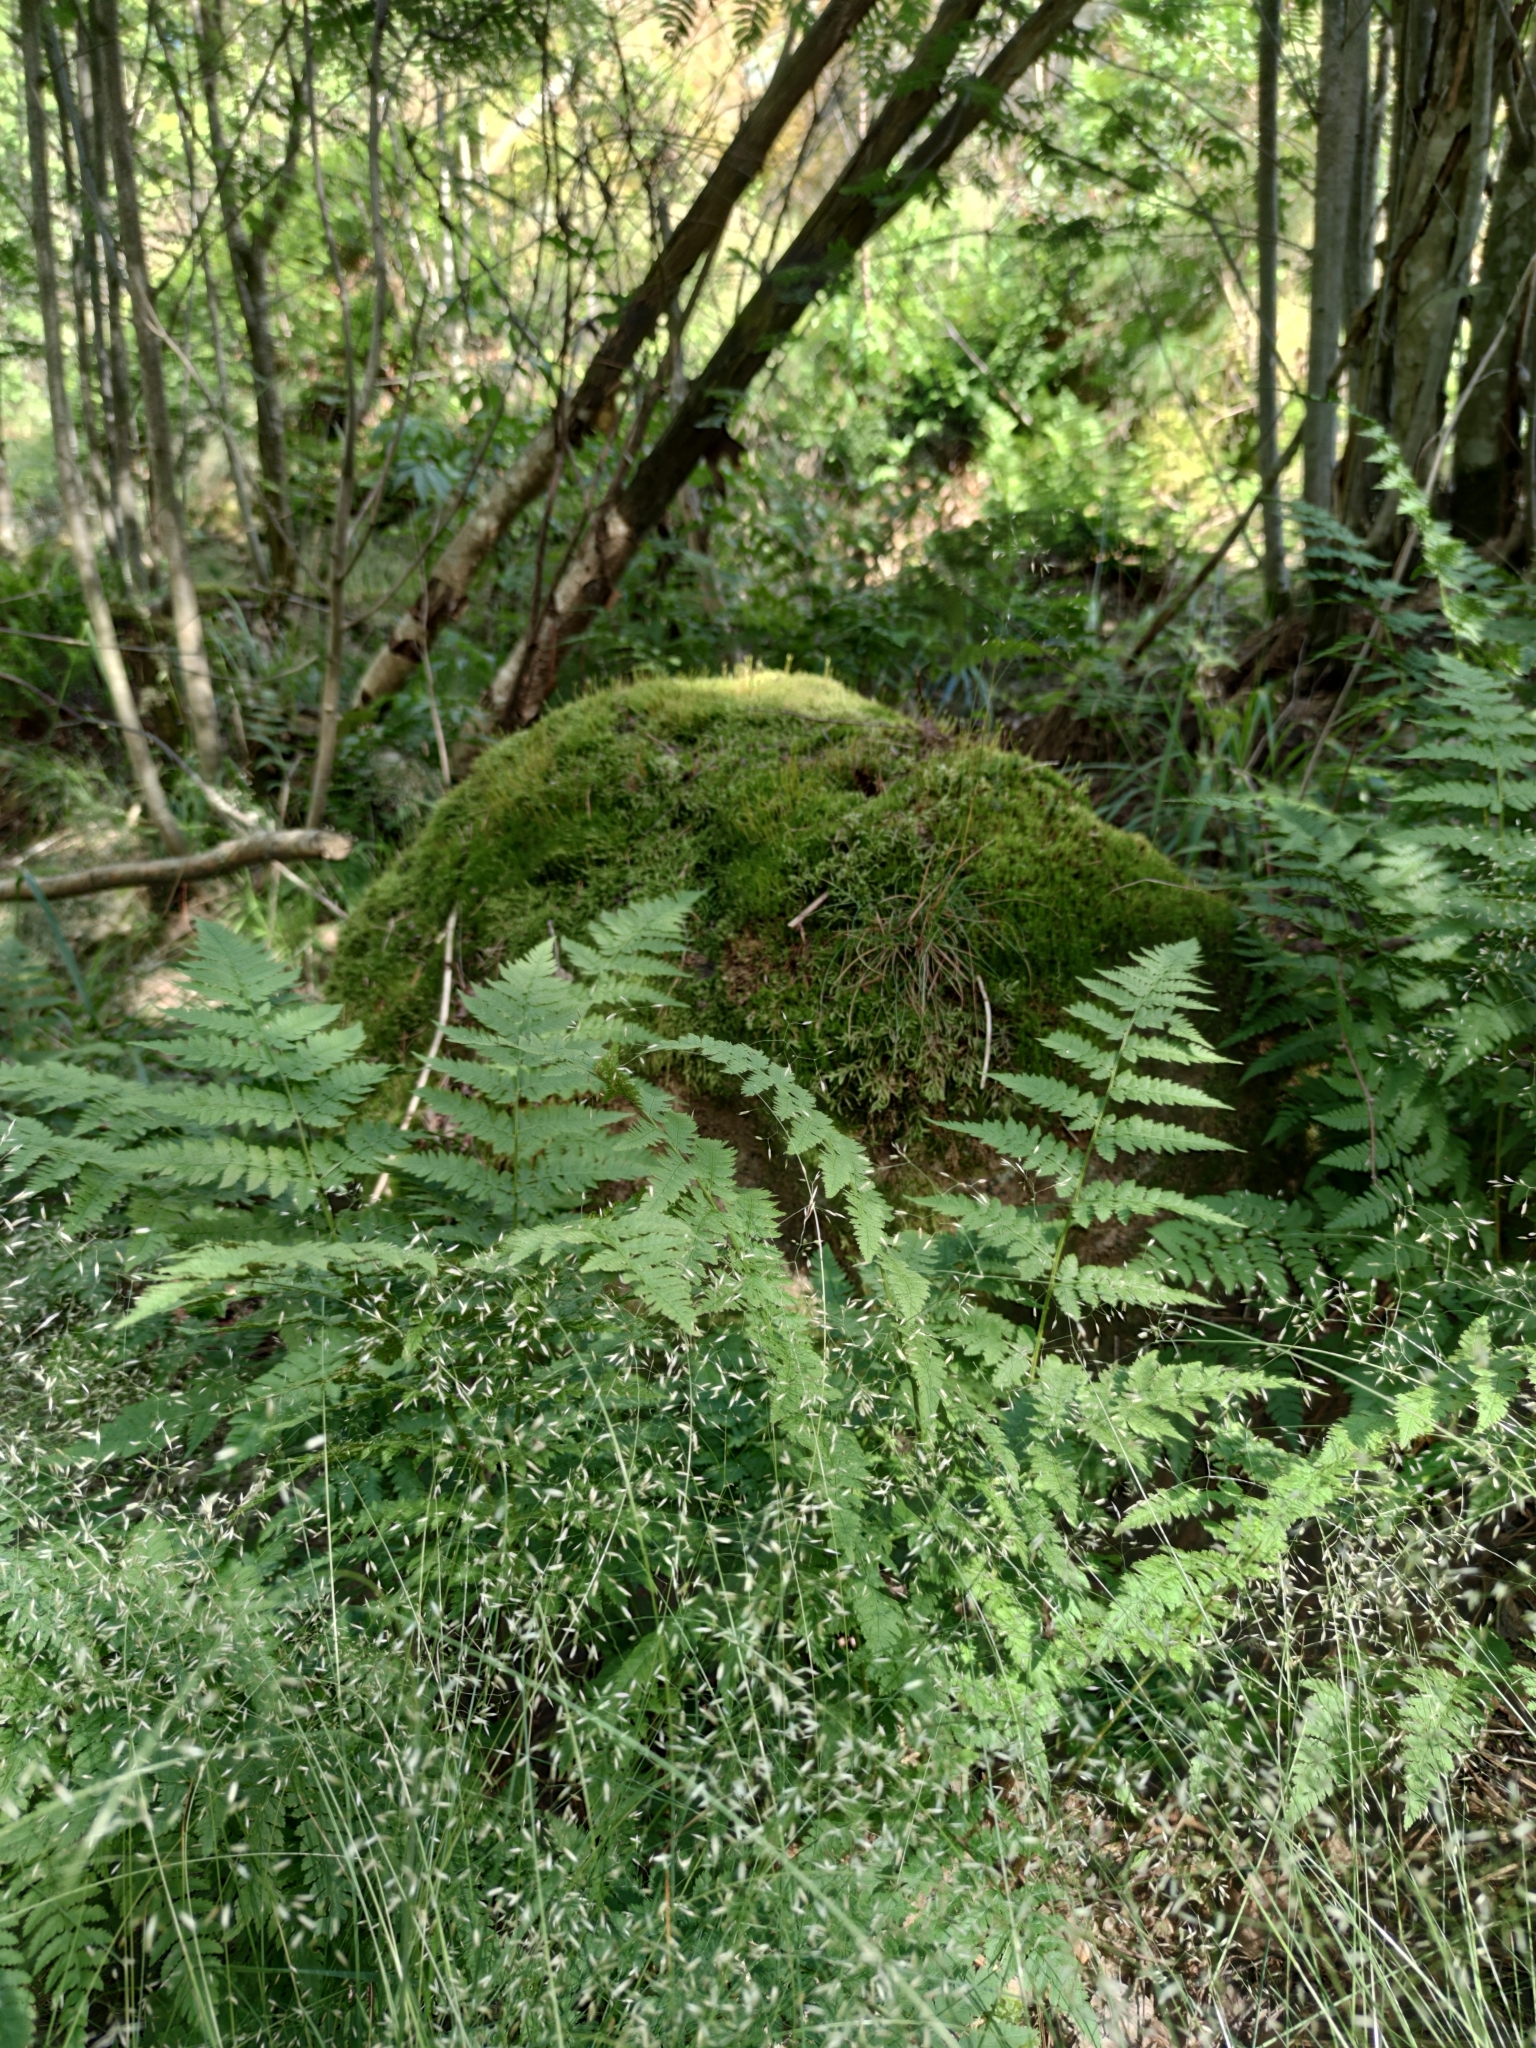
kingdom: Plantae
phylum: Tracheophyta
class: Polypodiopsida
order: Polypodiales
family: Dryopteridaceae
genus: Dryopteris
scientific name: Dryopteris carthusiana
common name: Narrow buckler-fern
